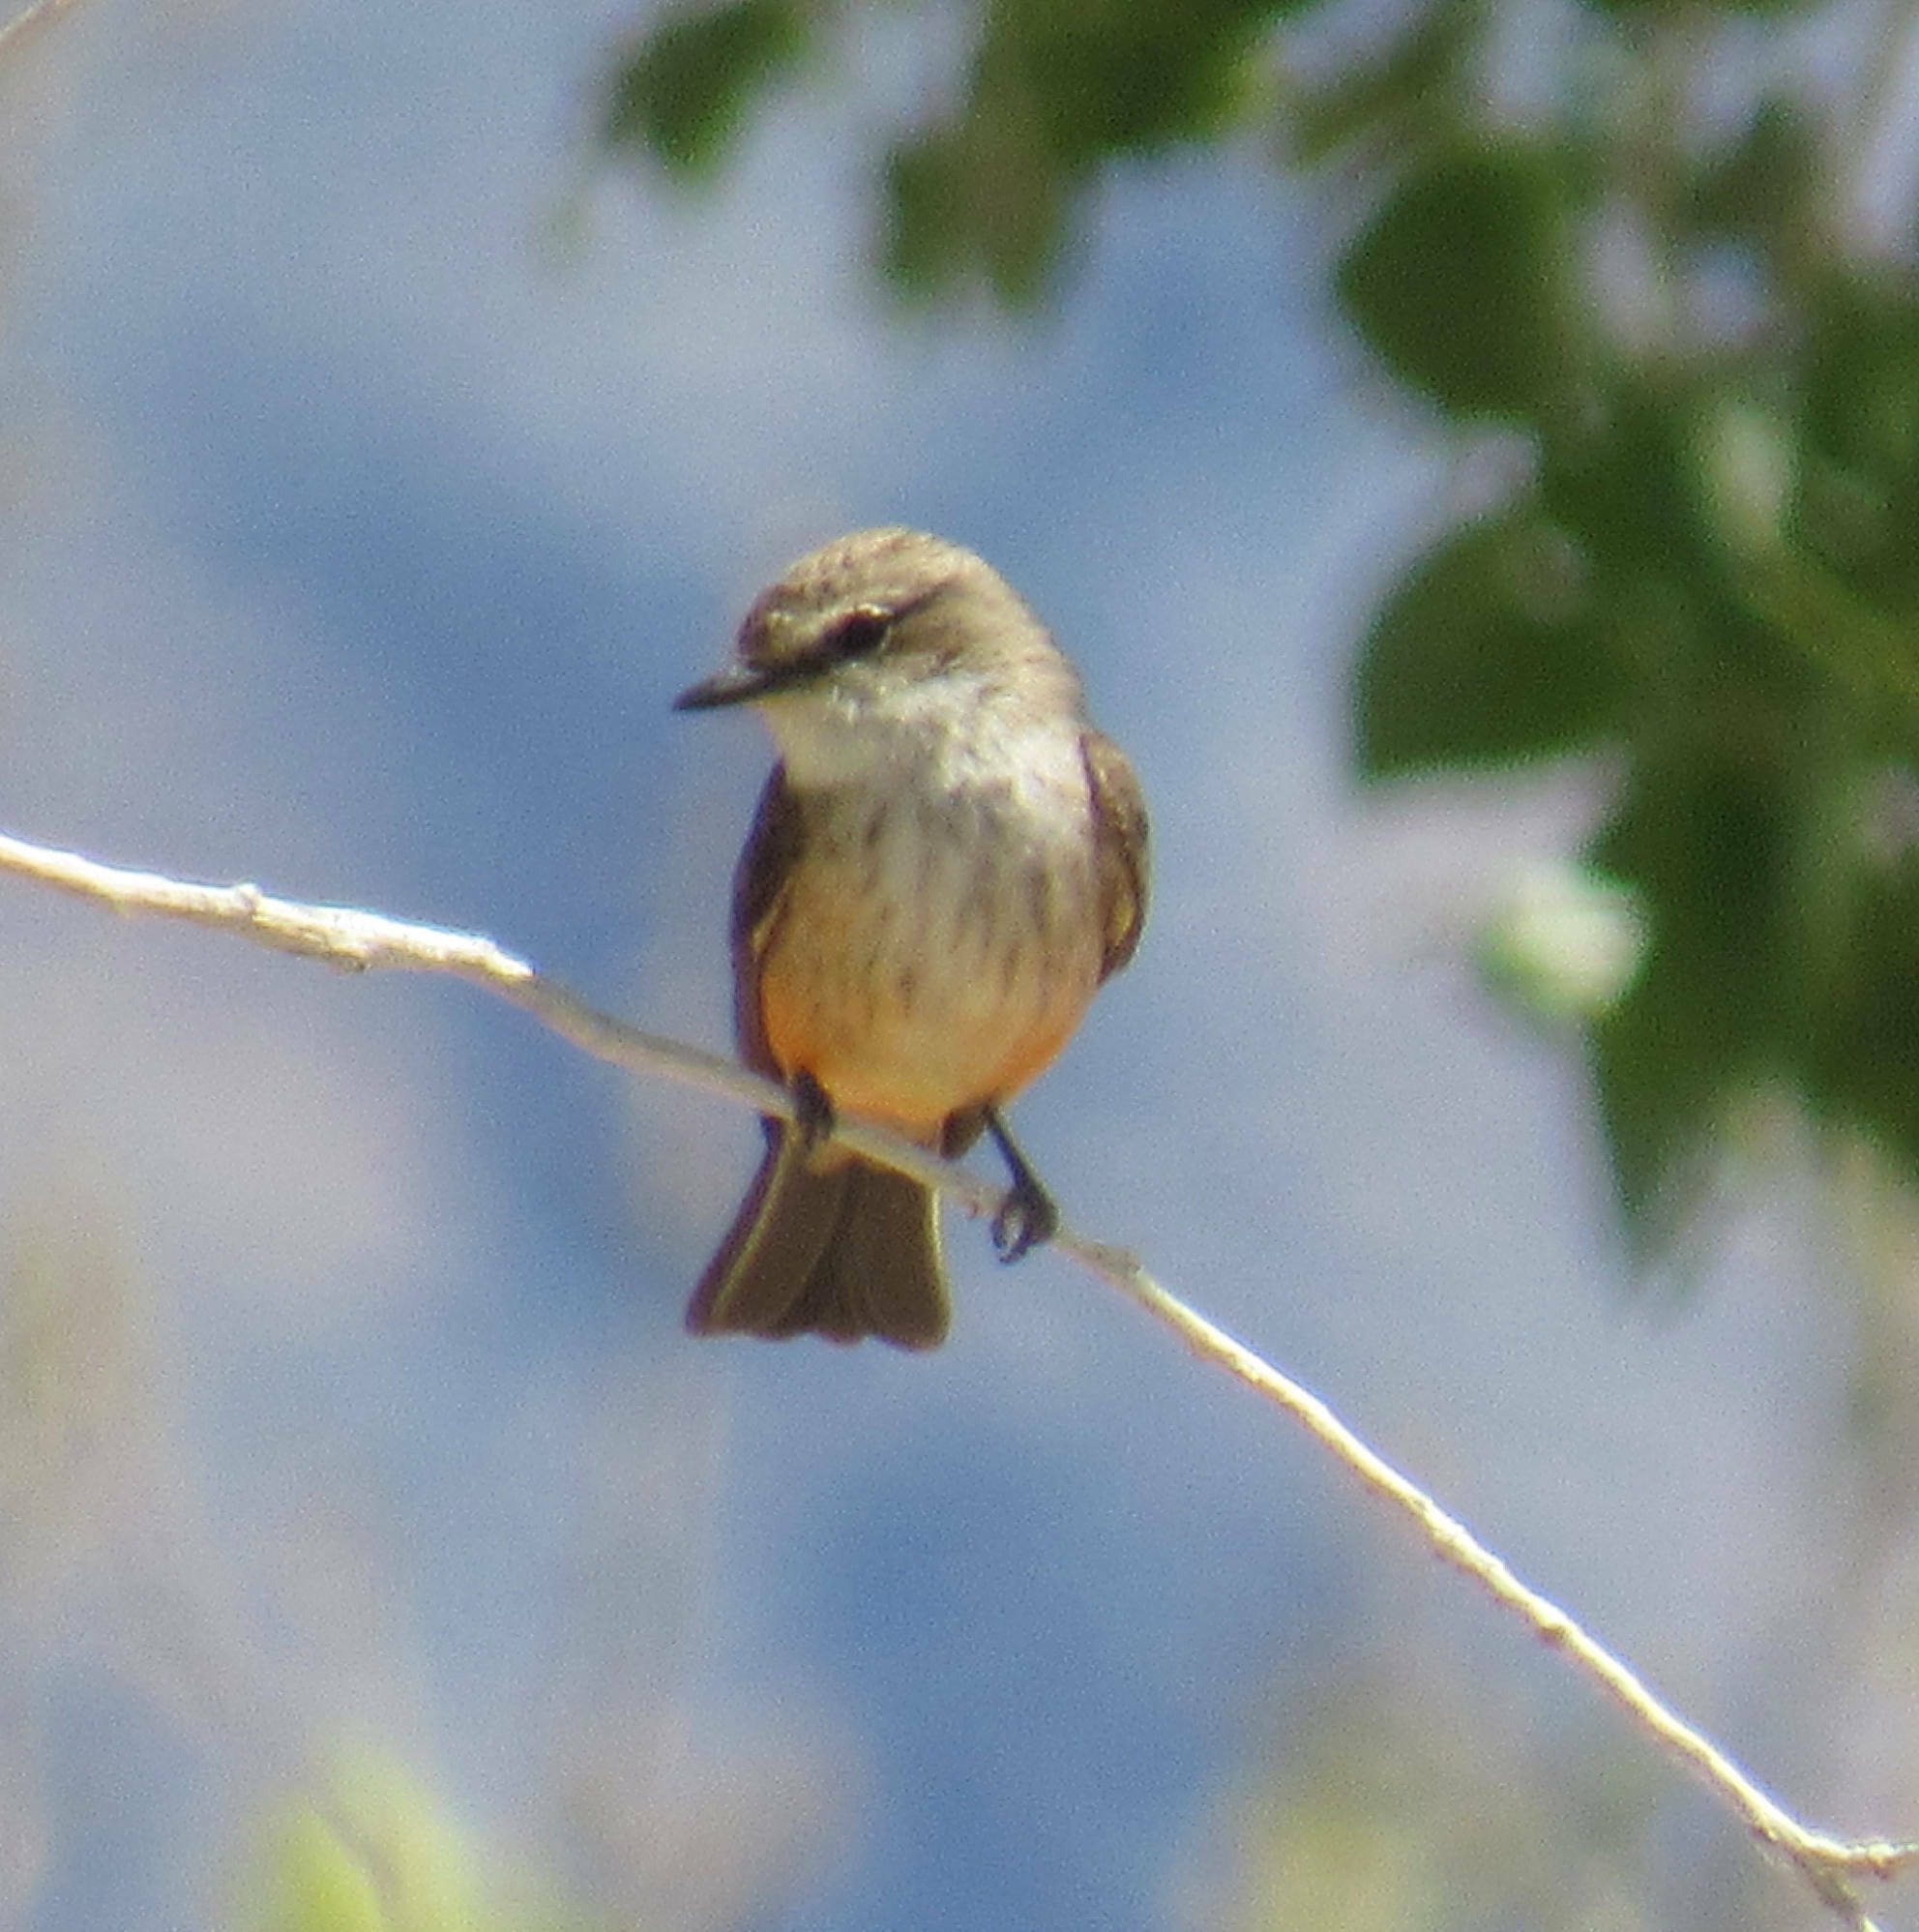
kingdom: Animalia
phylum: Chordata
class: Aves
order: Passeriformes
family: Tyrannidae
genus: Pyrocephalus
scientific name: Pyrocephalus rubinus
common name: Vermilion flycatcher
